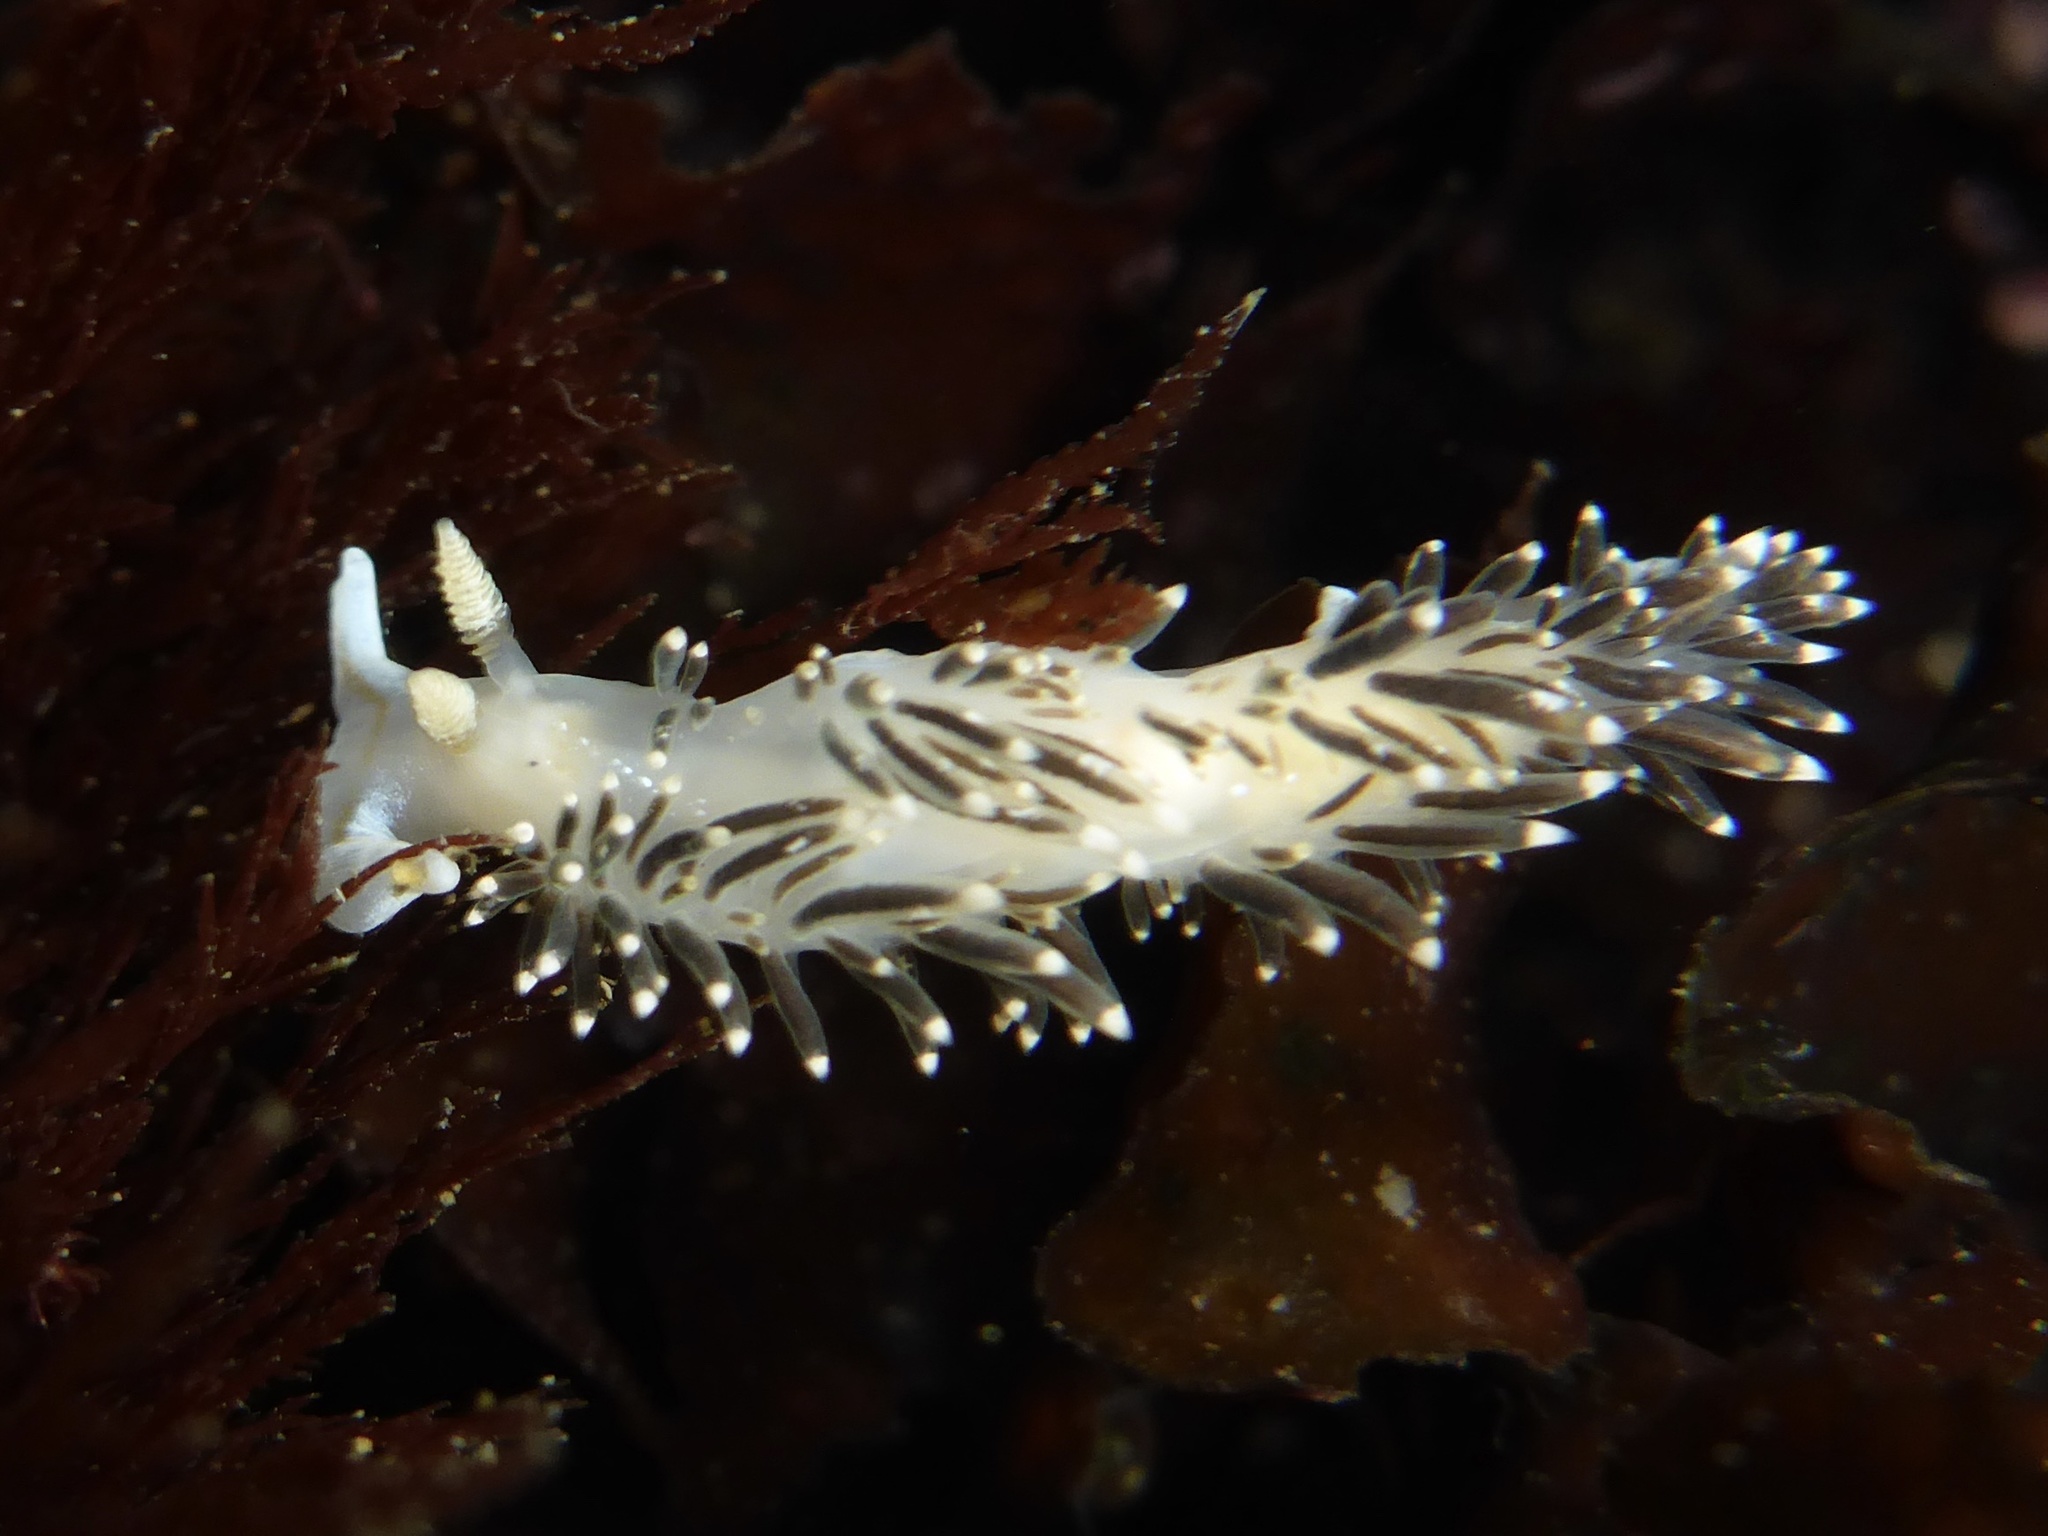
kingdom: Animalia
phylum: Mollusca
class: Gastropoda
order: Nudibranchia
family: Facelinidae
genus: Phidiana
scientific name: Phidiana hiltoni
